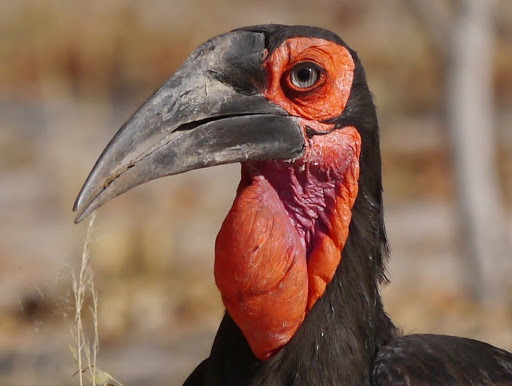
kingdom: Animalia
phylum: Chordata
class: Aves
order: Bucerotiformes
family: Bucorvidae
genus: Bucorvus
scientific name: Bucorvus leadbeateri
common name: Southern ground-hornbill
